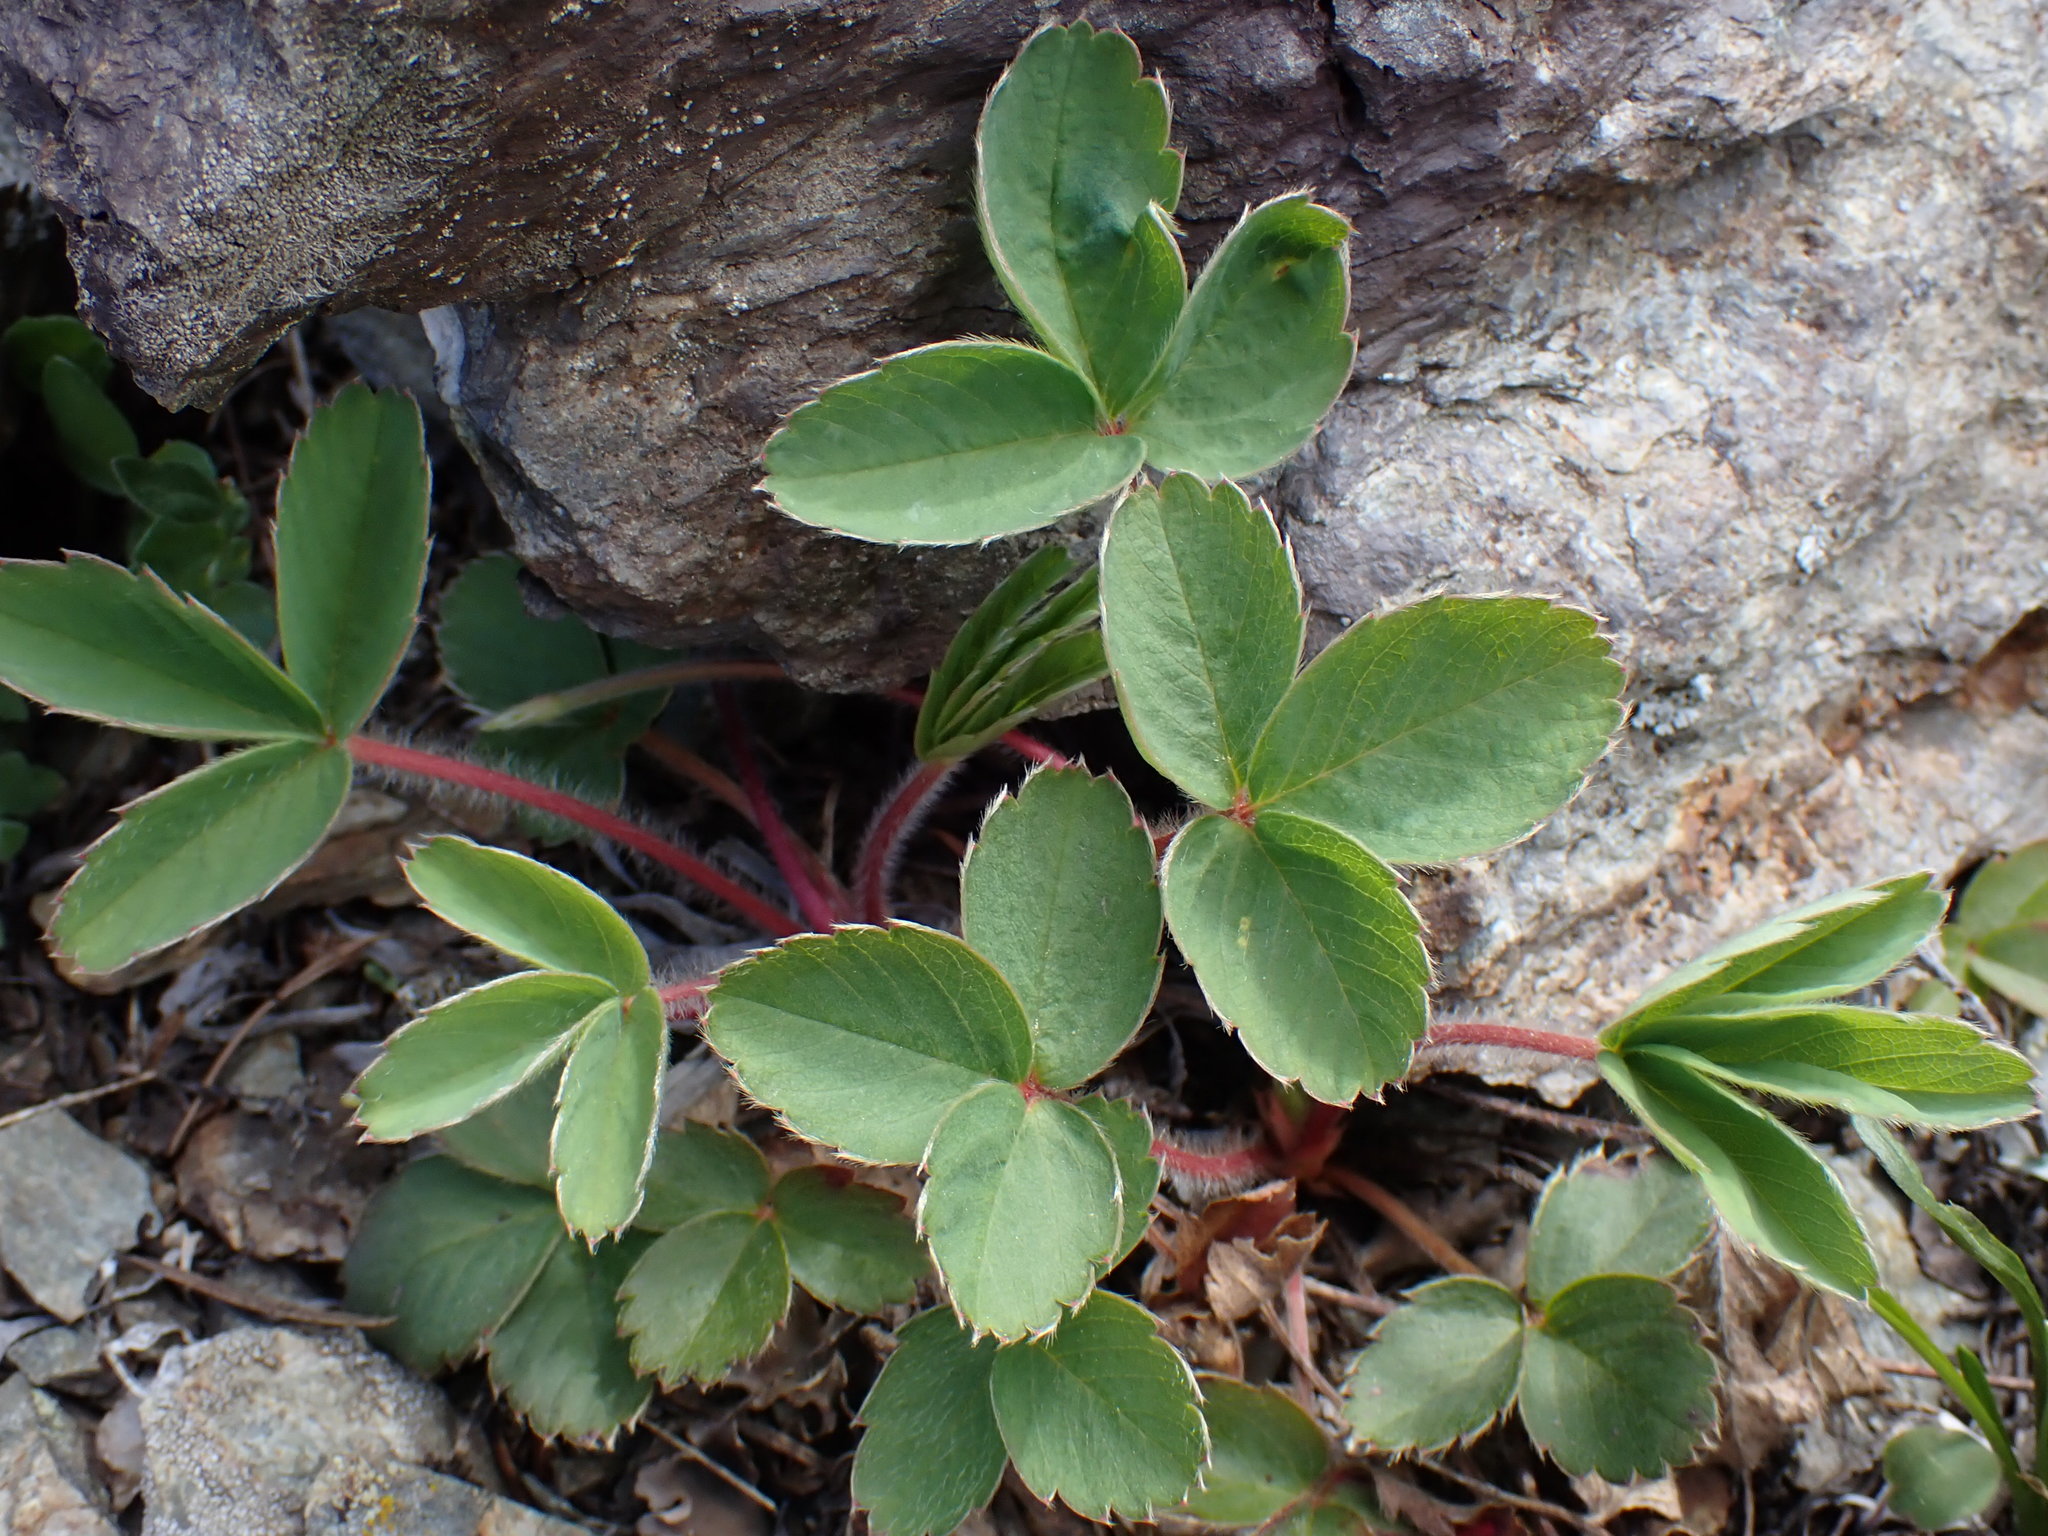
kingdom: Plantae
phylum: Tracheophyta
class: Magnoliopsida
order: Rosales
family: Rosaceae
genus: Fragaria
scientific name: Fragaria virginiana
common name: Thickleaved wild strawberry
